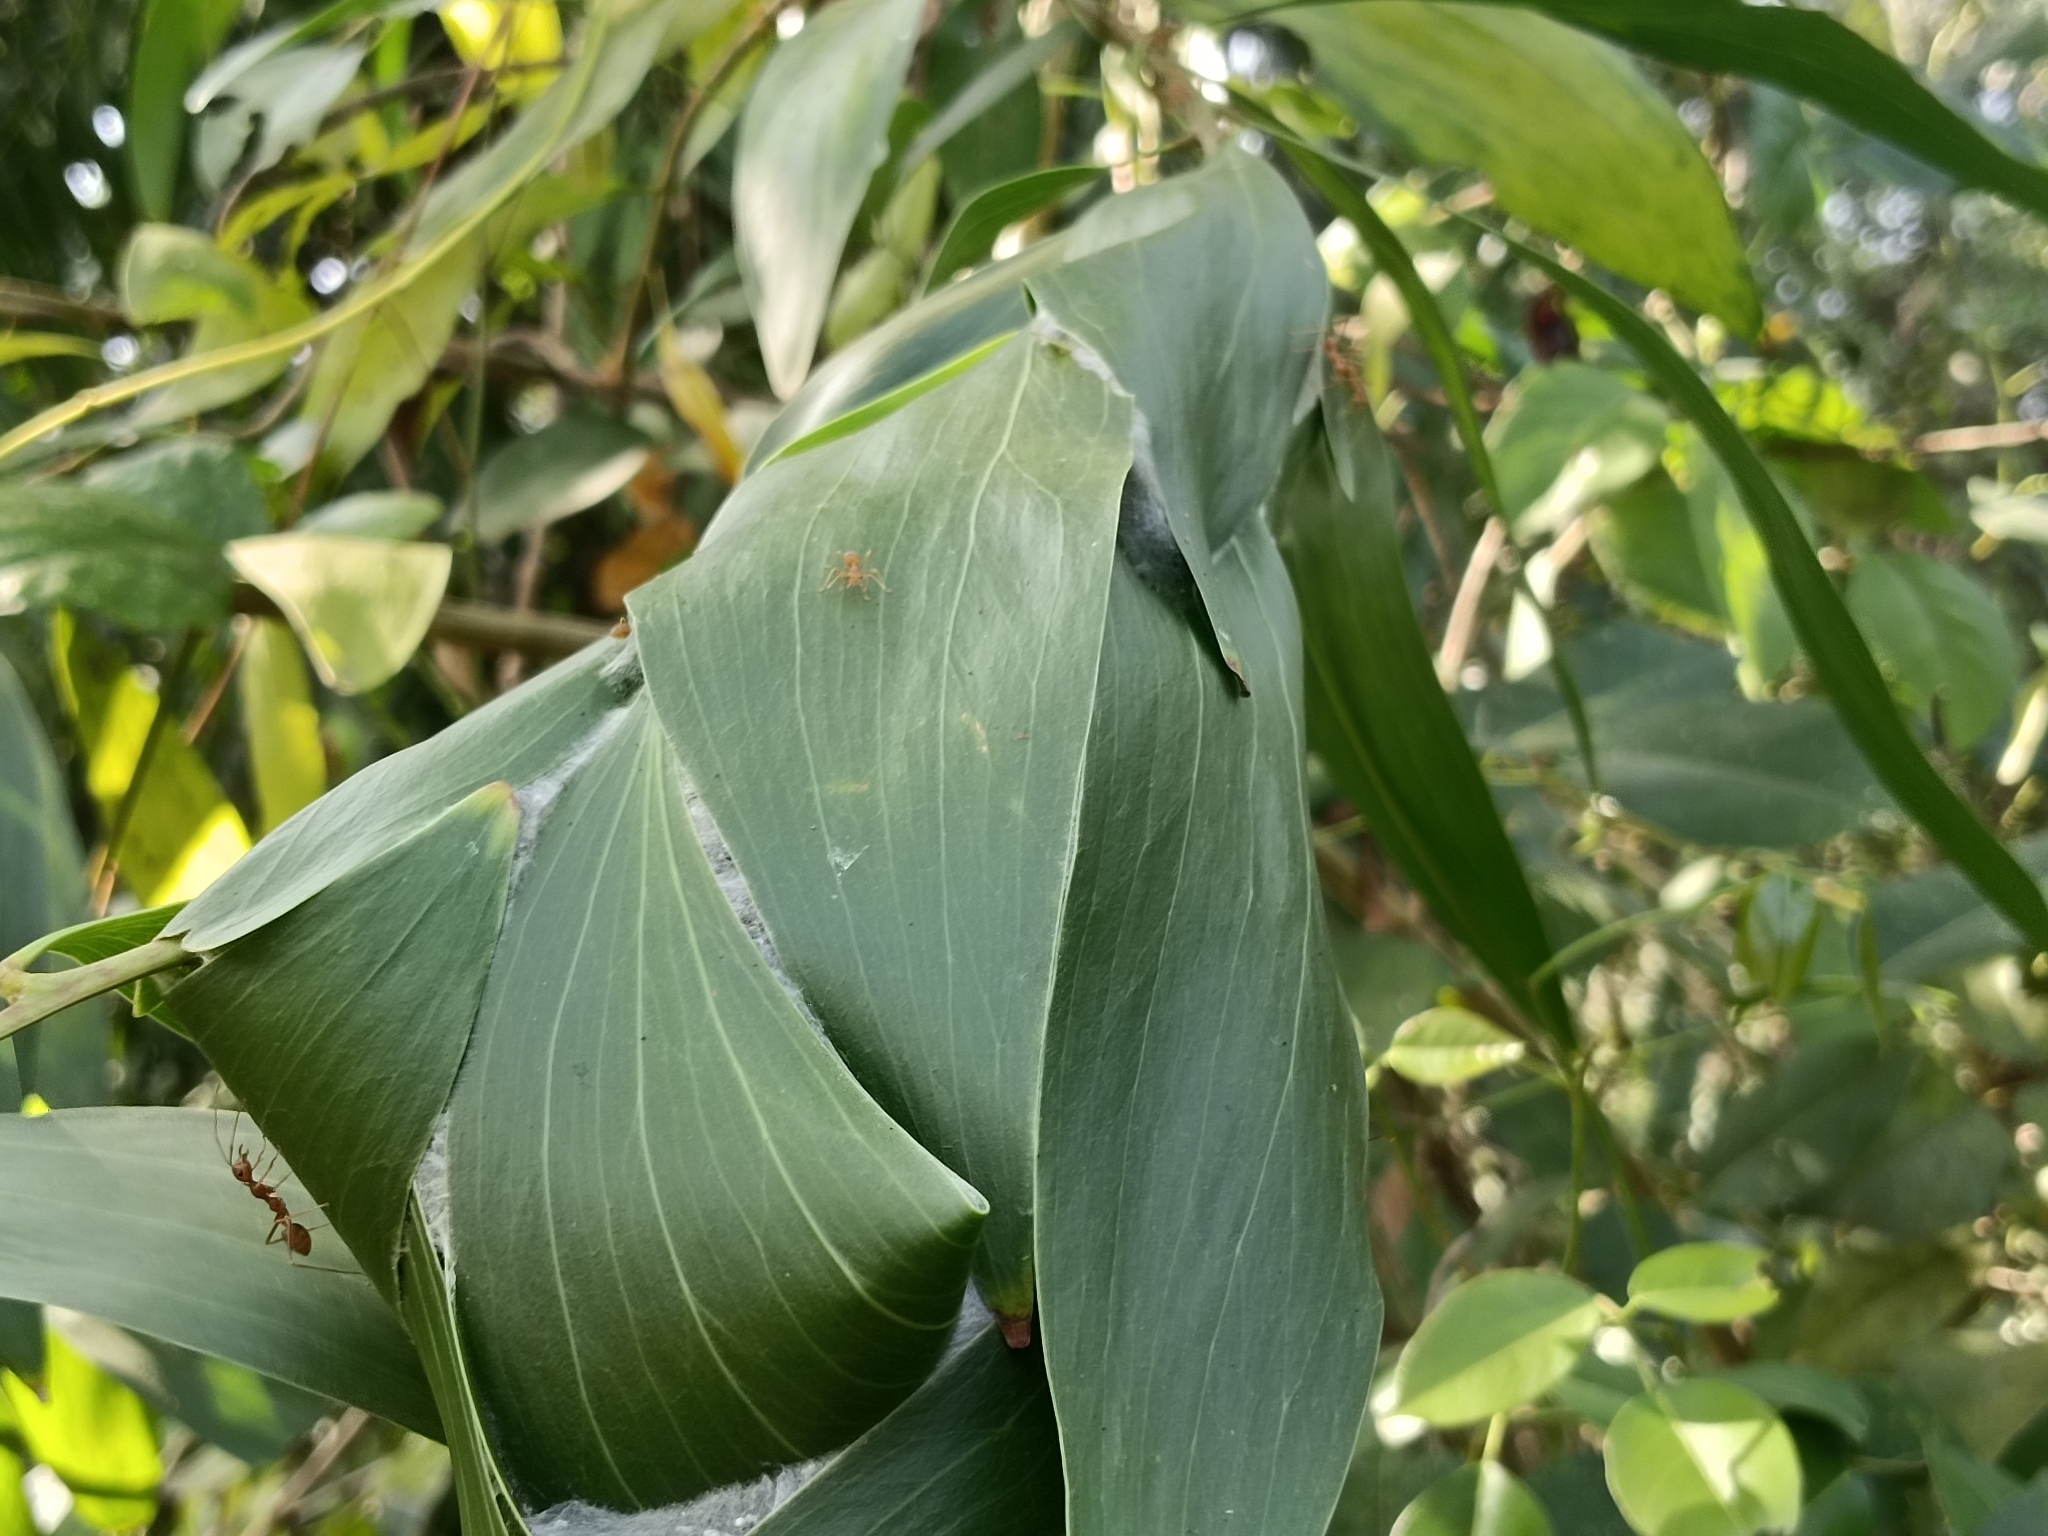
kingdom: Animalia
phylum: Arthropoda
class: Insecta
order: Hymenoptera
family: Formicidae
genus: Oecophylla
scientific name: Oecophylla smaragdina
